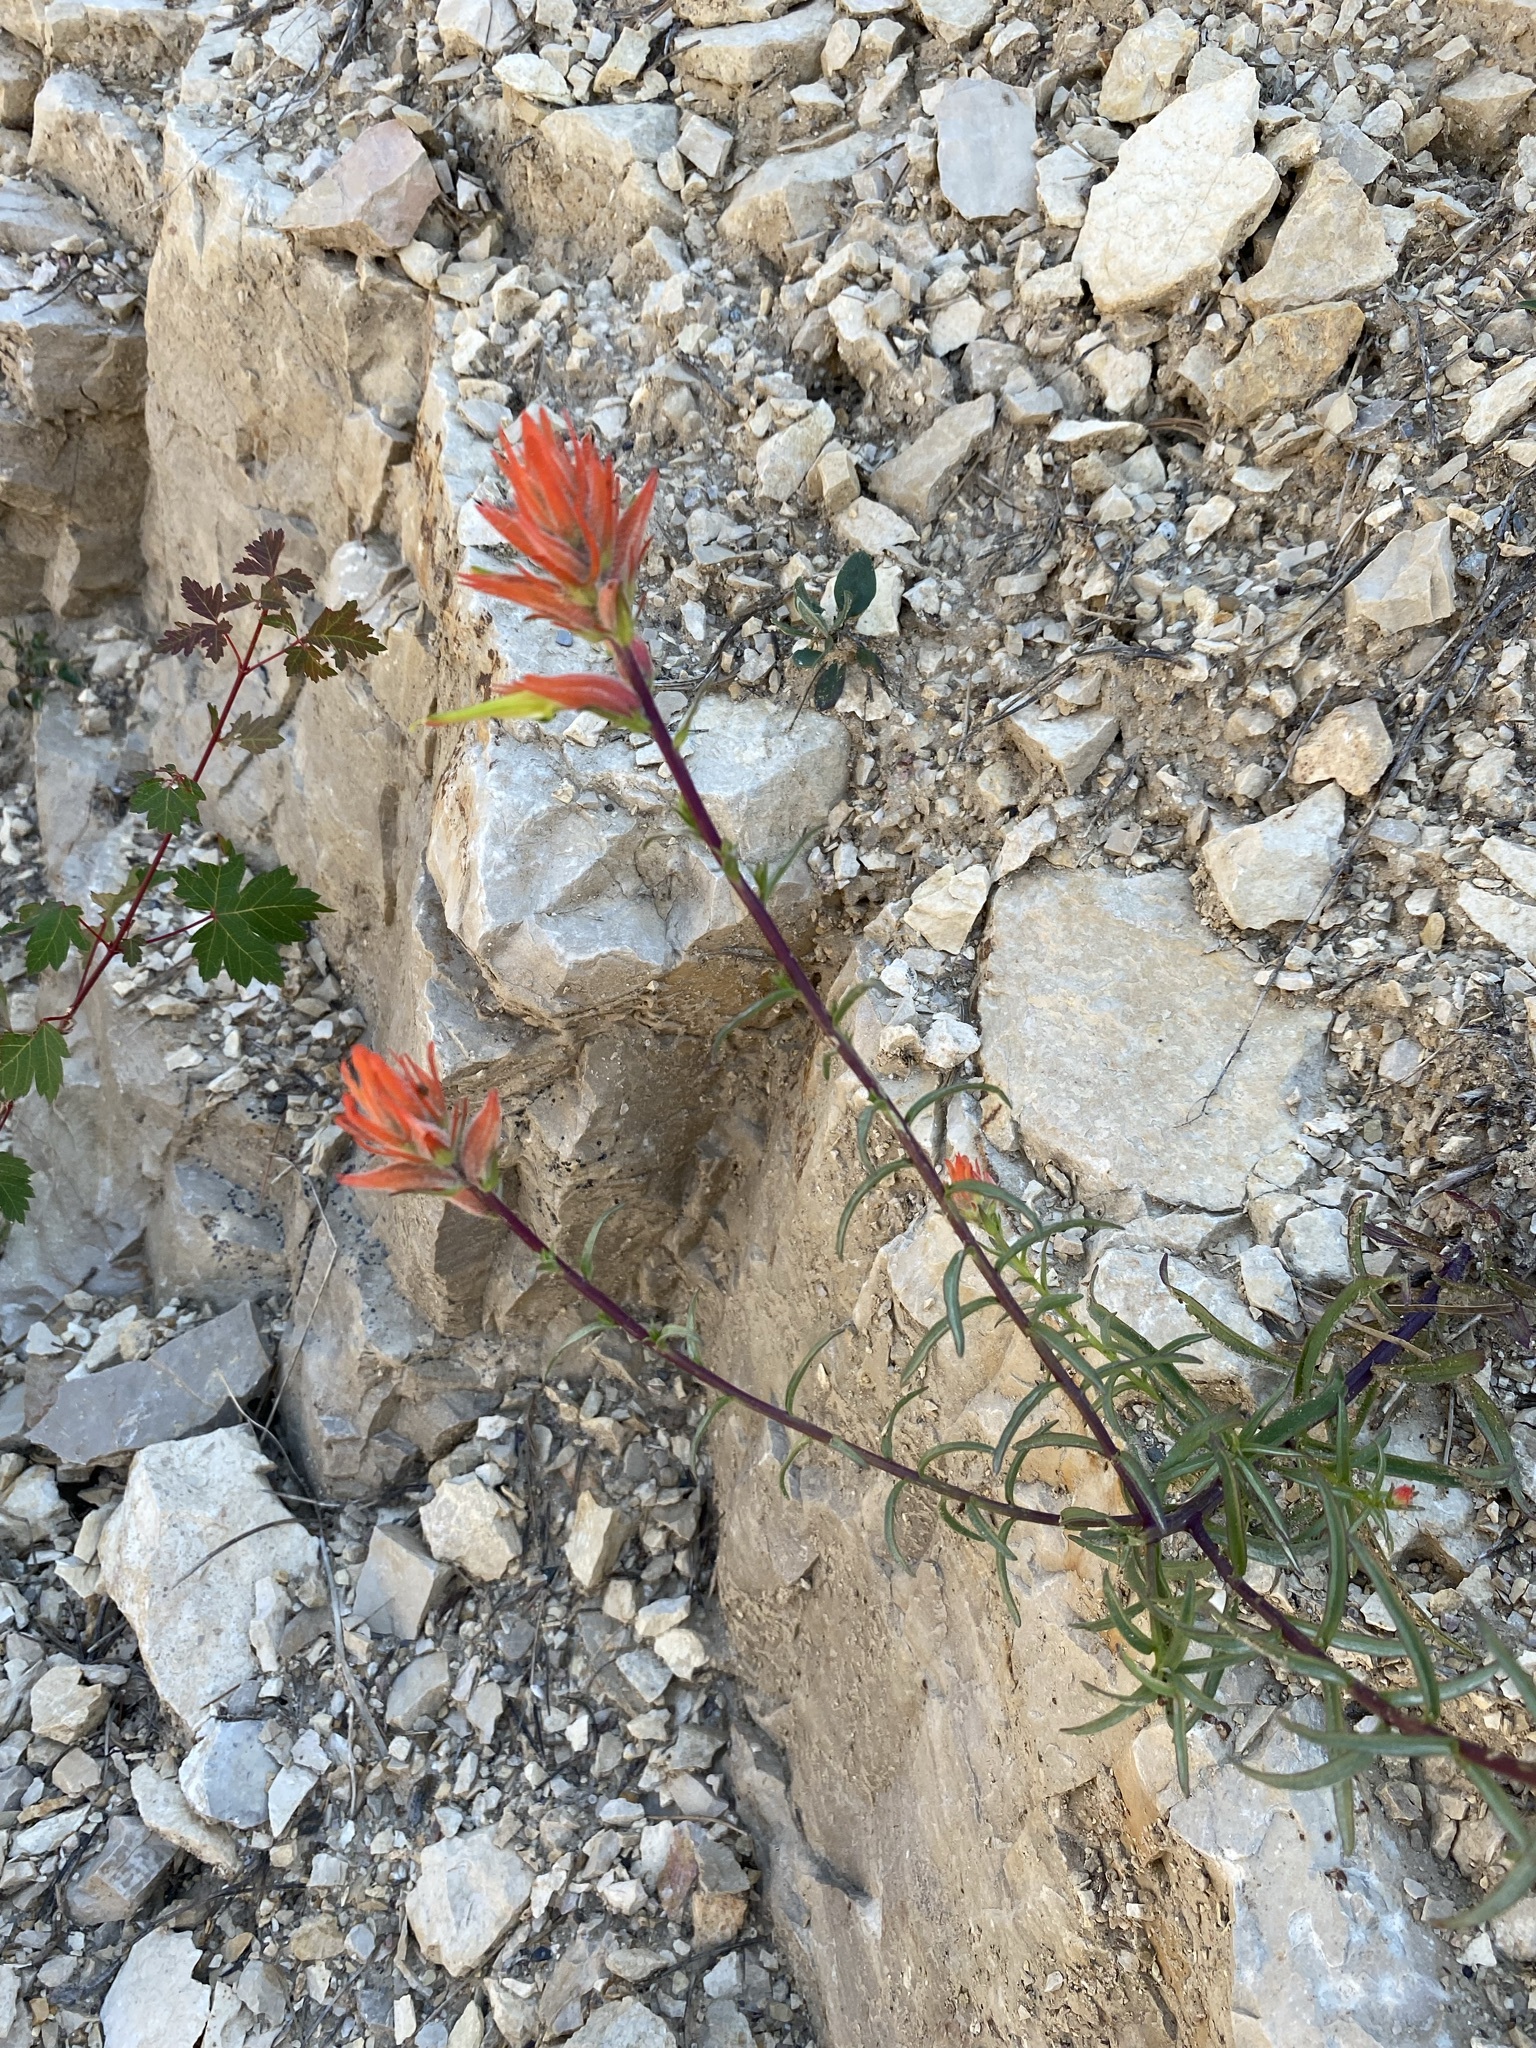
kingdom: Plantae
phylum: Tracheophyta
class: Magnoliopsida
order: Lamiales
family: Orobanchaceae
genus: Castilleja
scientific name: Castilleja linariifolia
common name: Wyoming paintbrush
